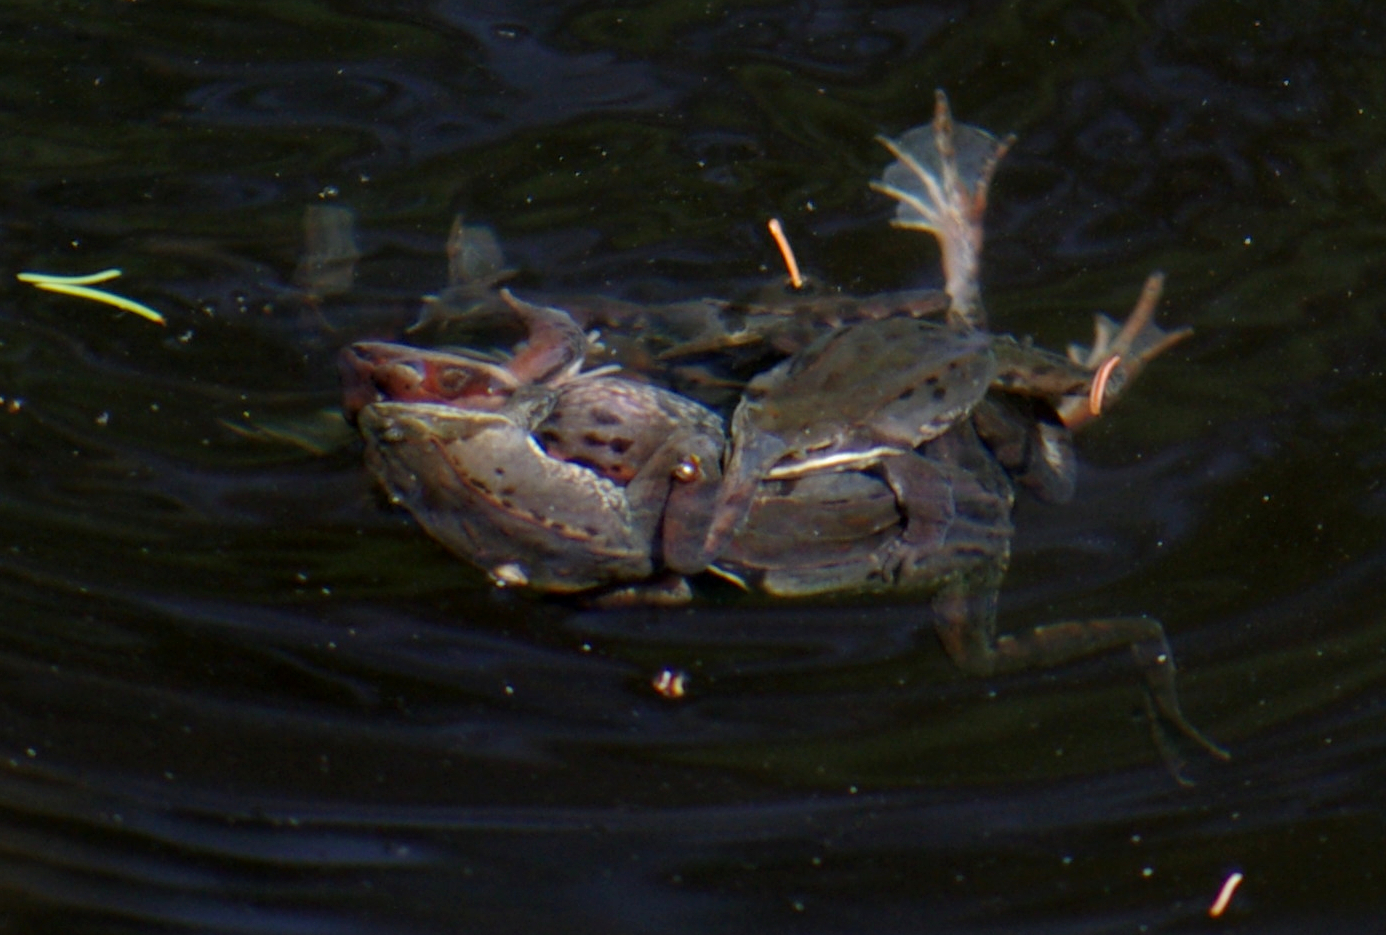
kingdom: Animalia
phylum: Chordata
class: Amphibia
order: Anura
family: Ranidae
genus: Lithobates
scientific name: Lithobates sylvaticus
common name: Wood frog
